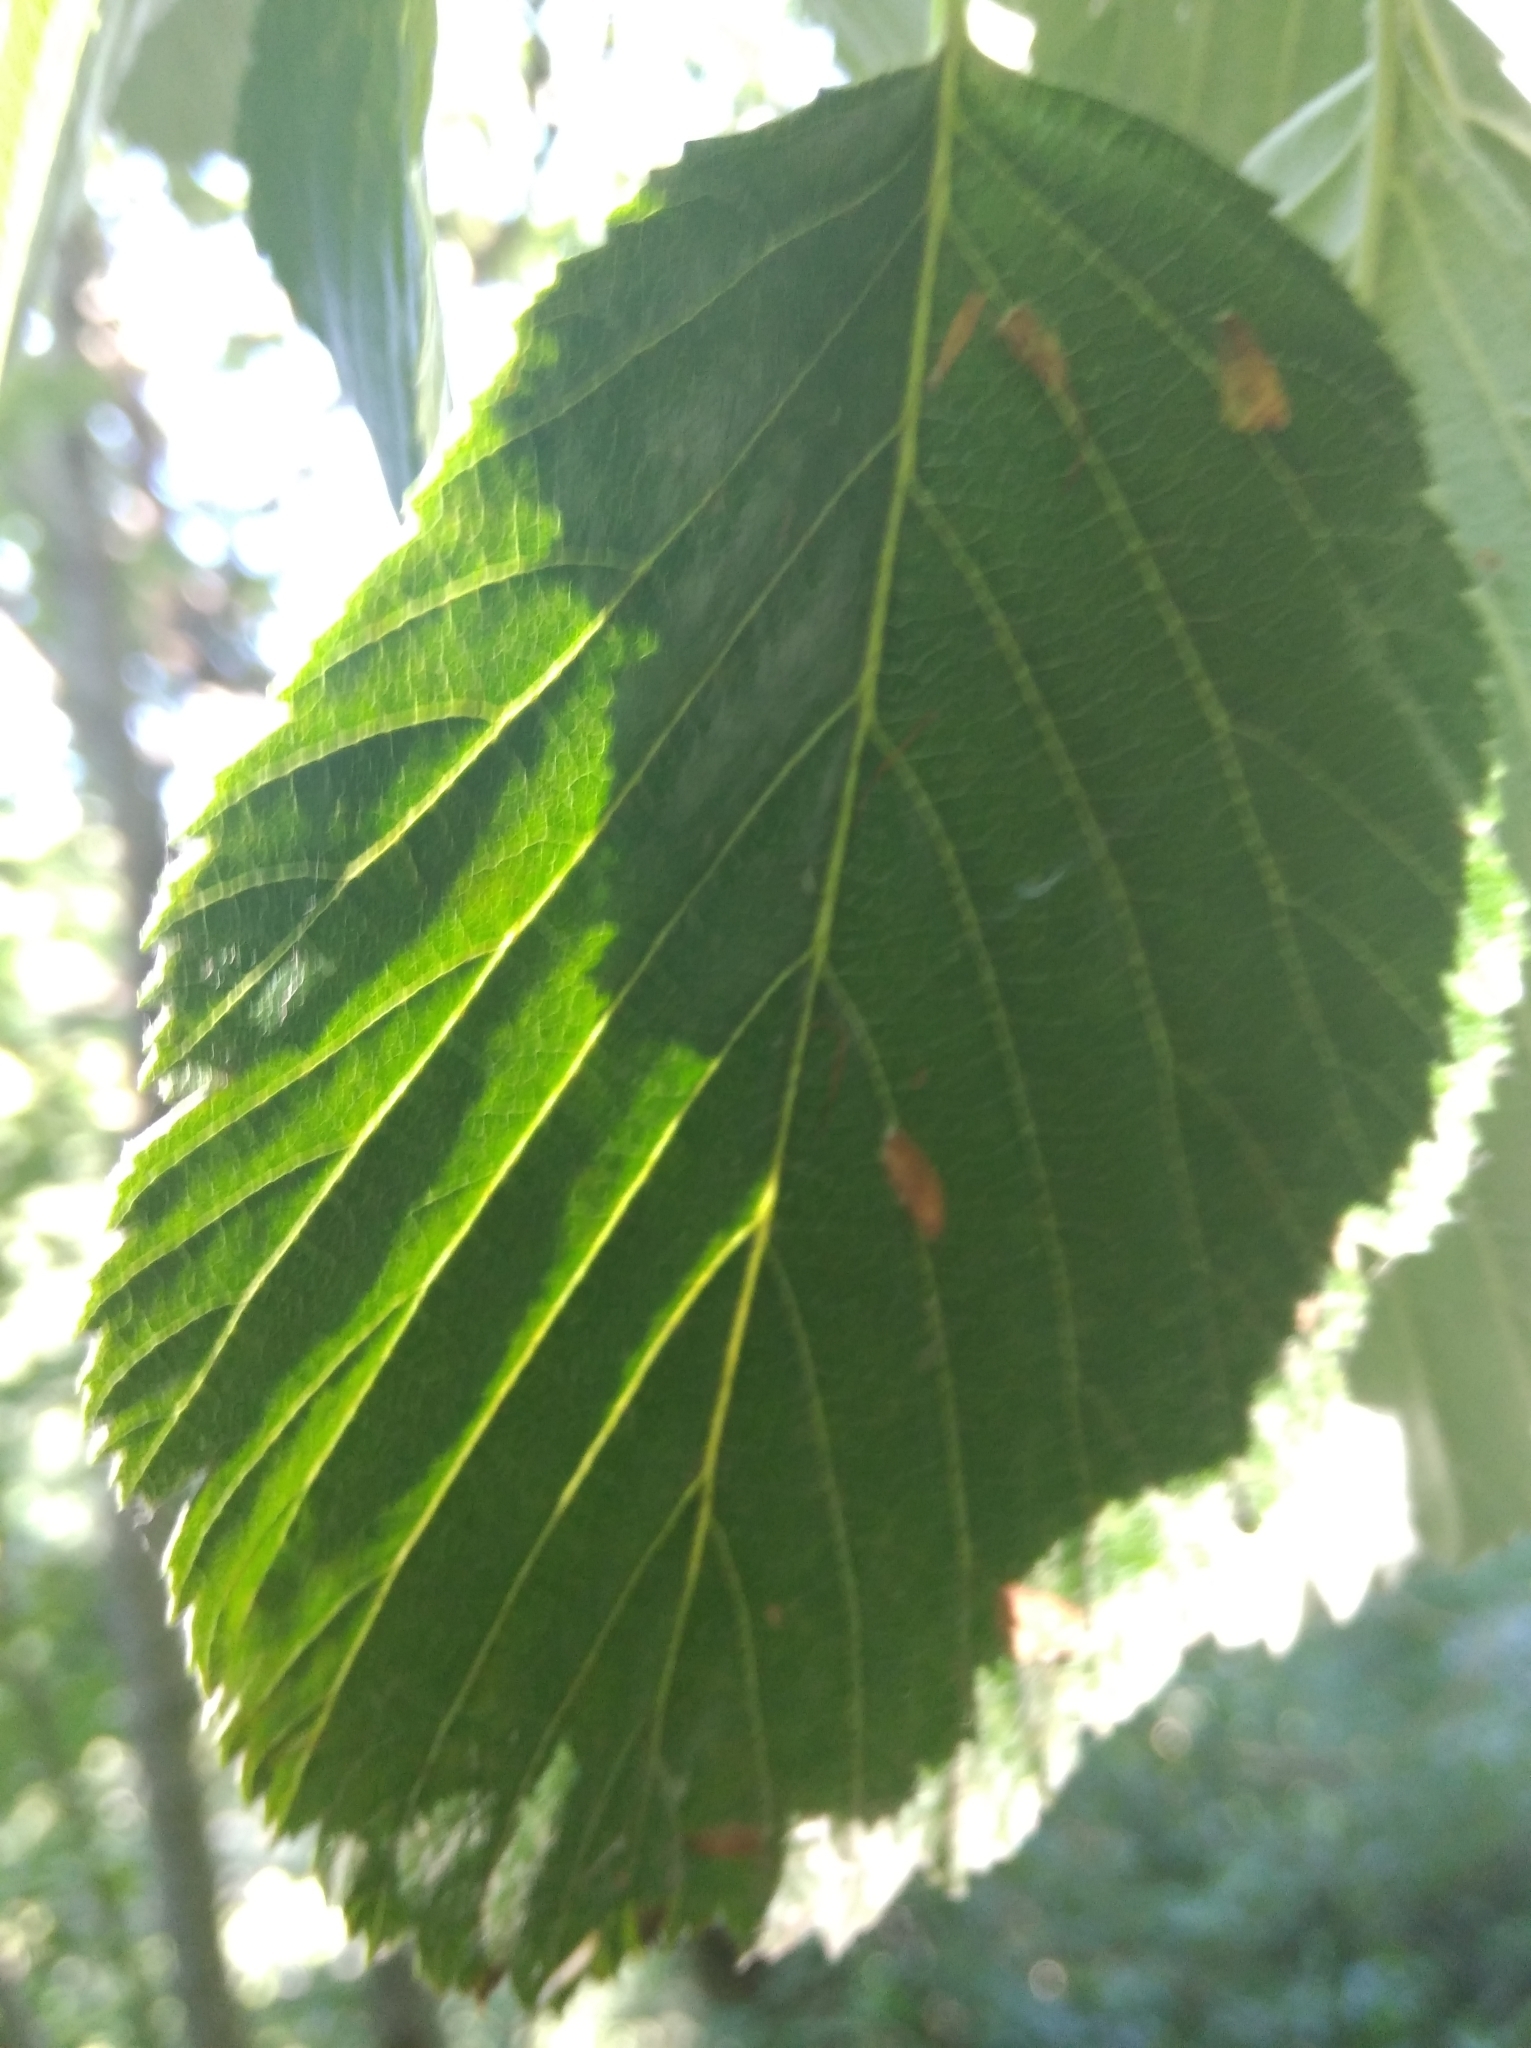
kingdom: Plantae
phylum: Tracheophyta
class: Magnoliopsida
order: Rosales
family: Rosaceae
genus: Aria
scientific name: Aria edulis
